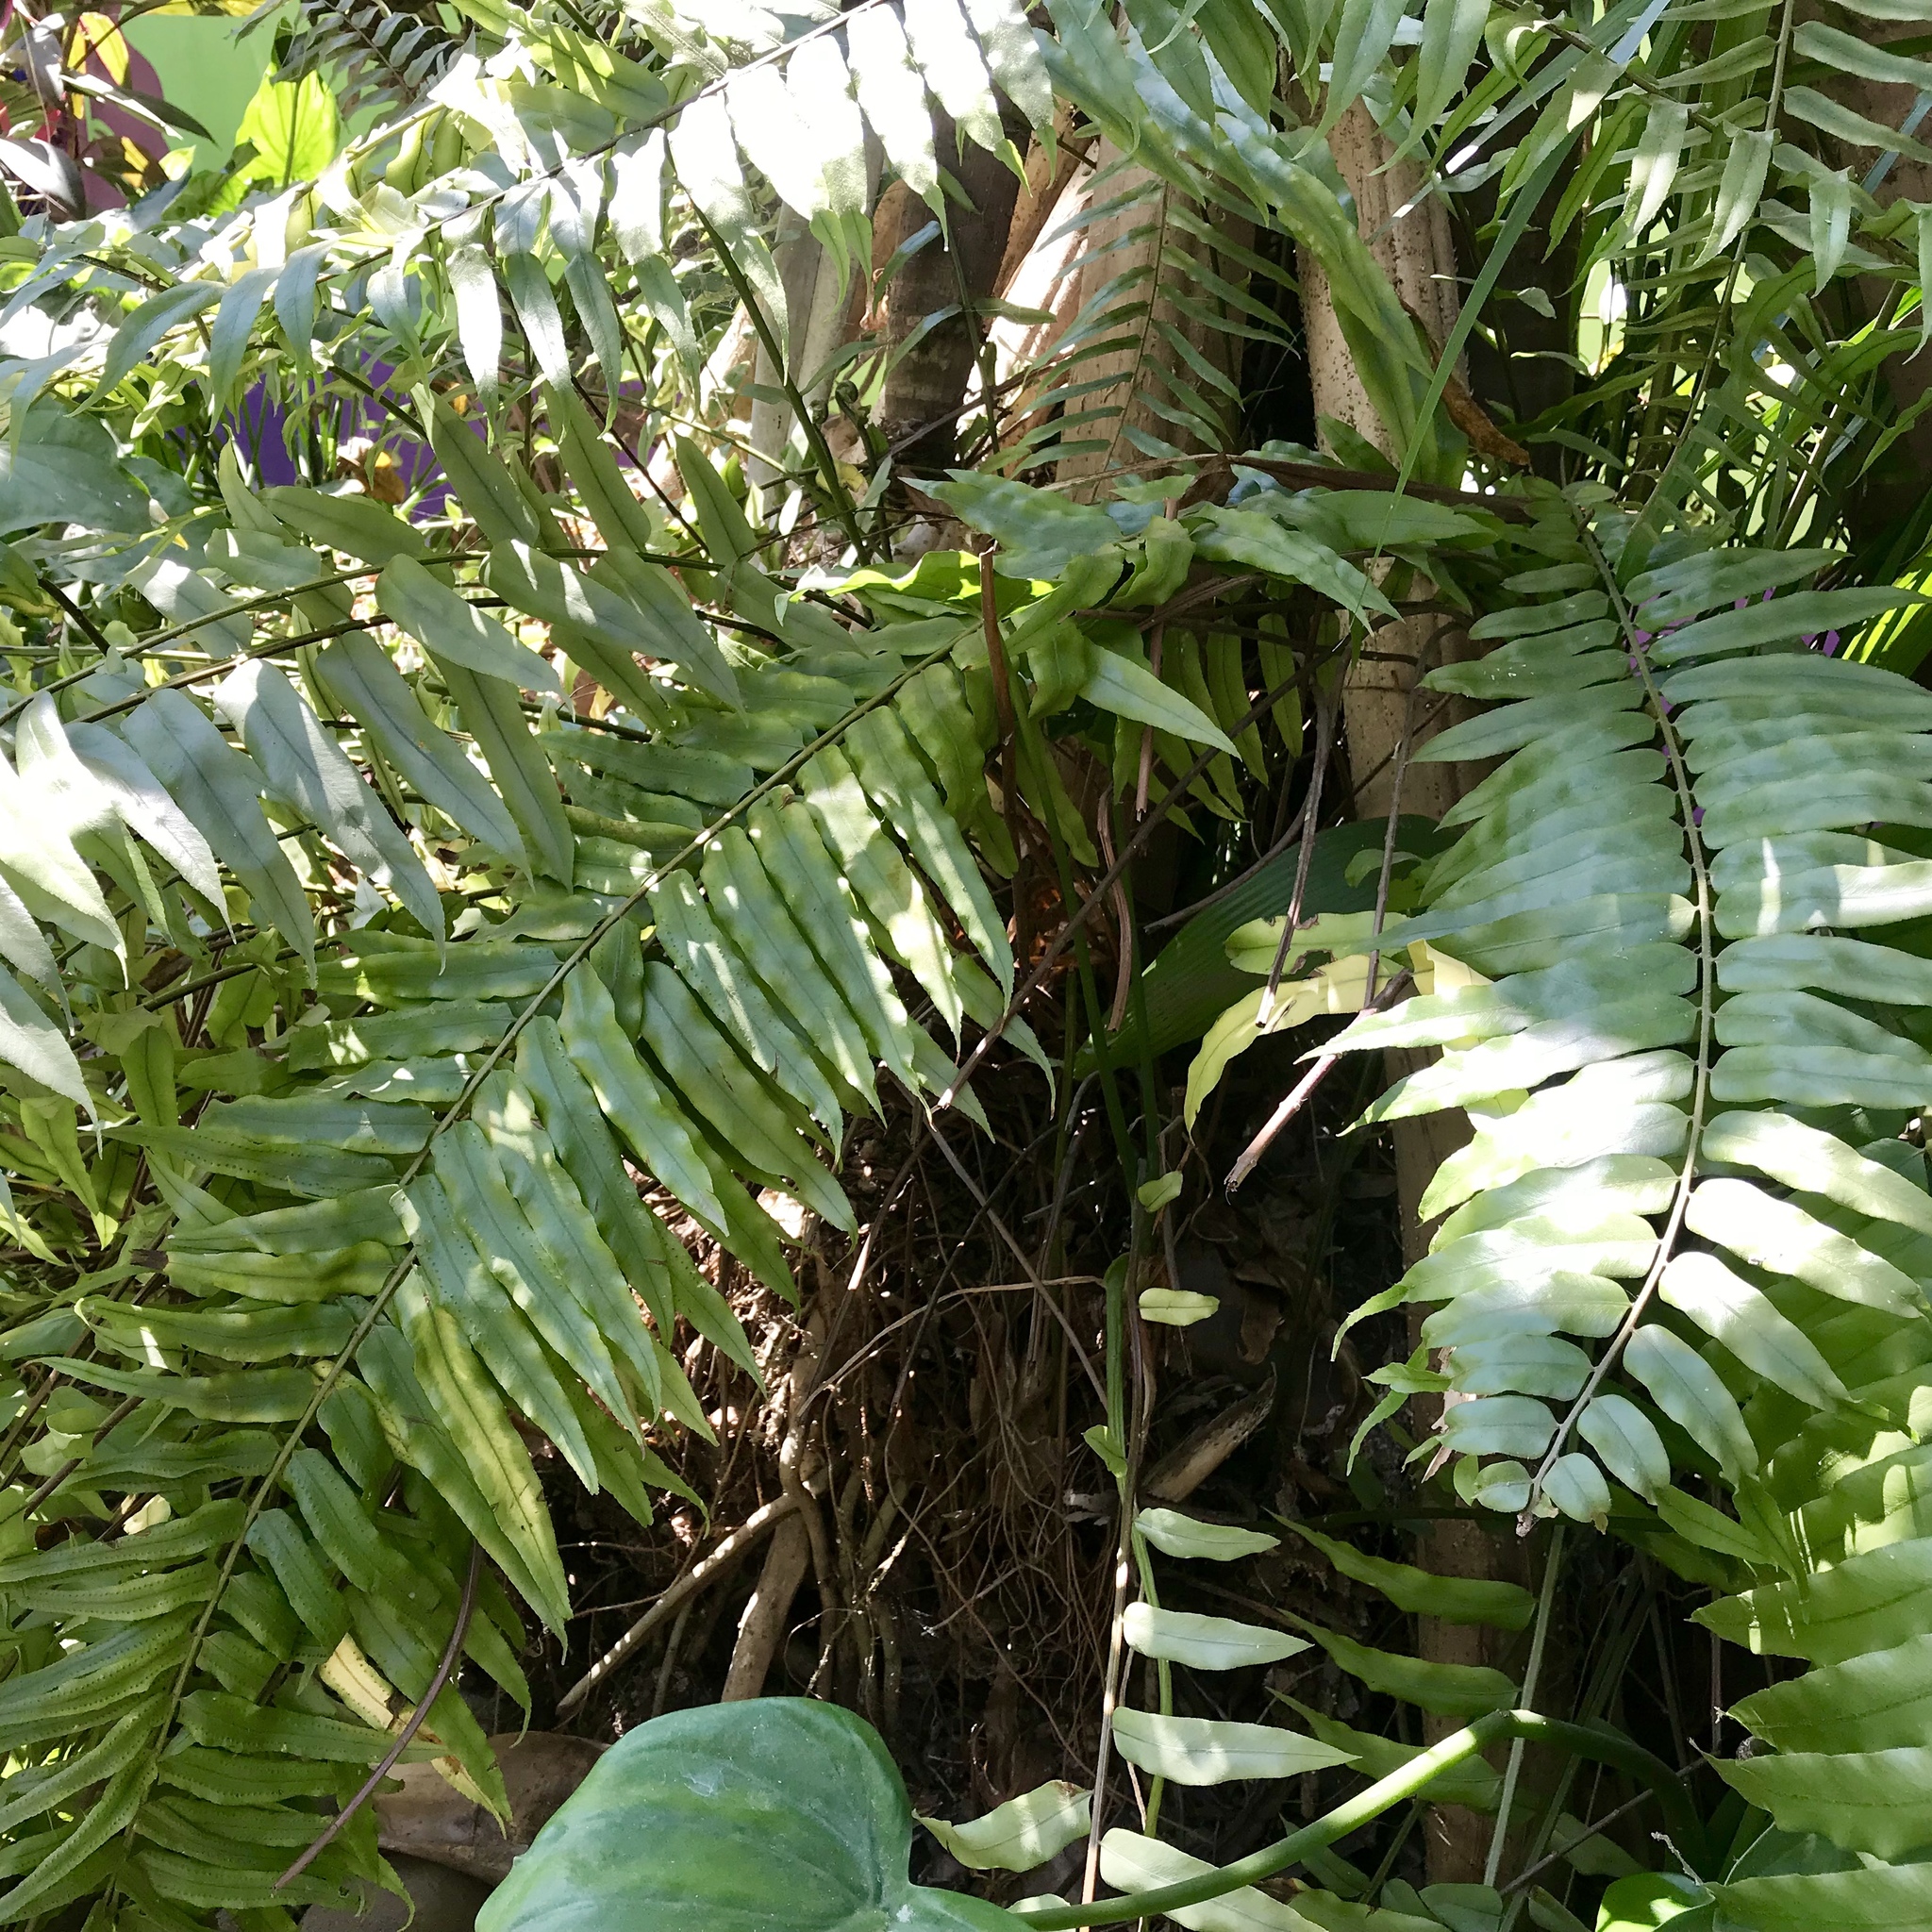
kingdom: Plantae
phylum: Tracheophyta
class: Polypodiopsida
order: Polypodiales
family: Nephrolepidaceae
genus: Nephrolepis
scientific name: Nephrolepis biserrata
